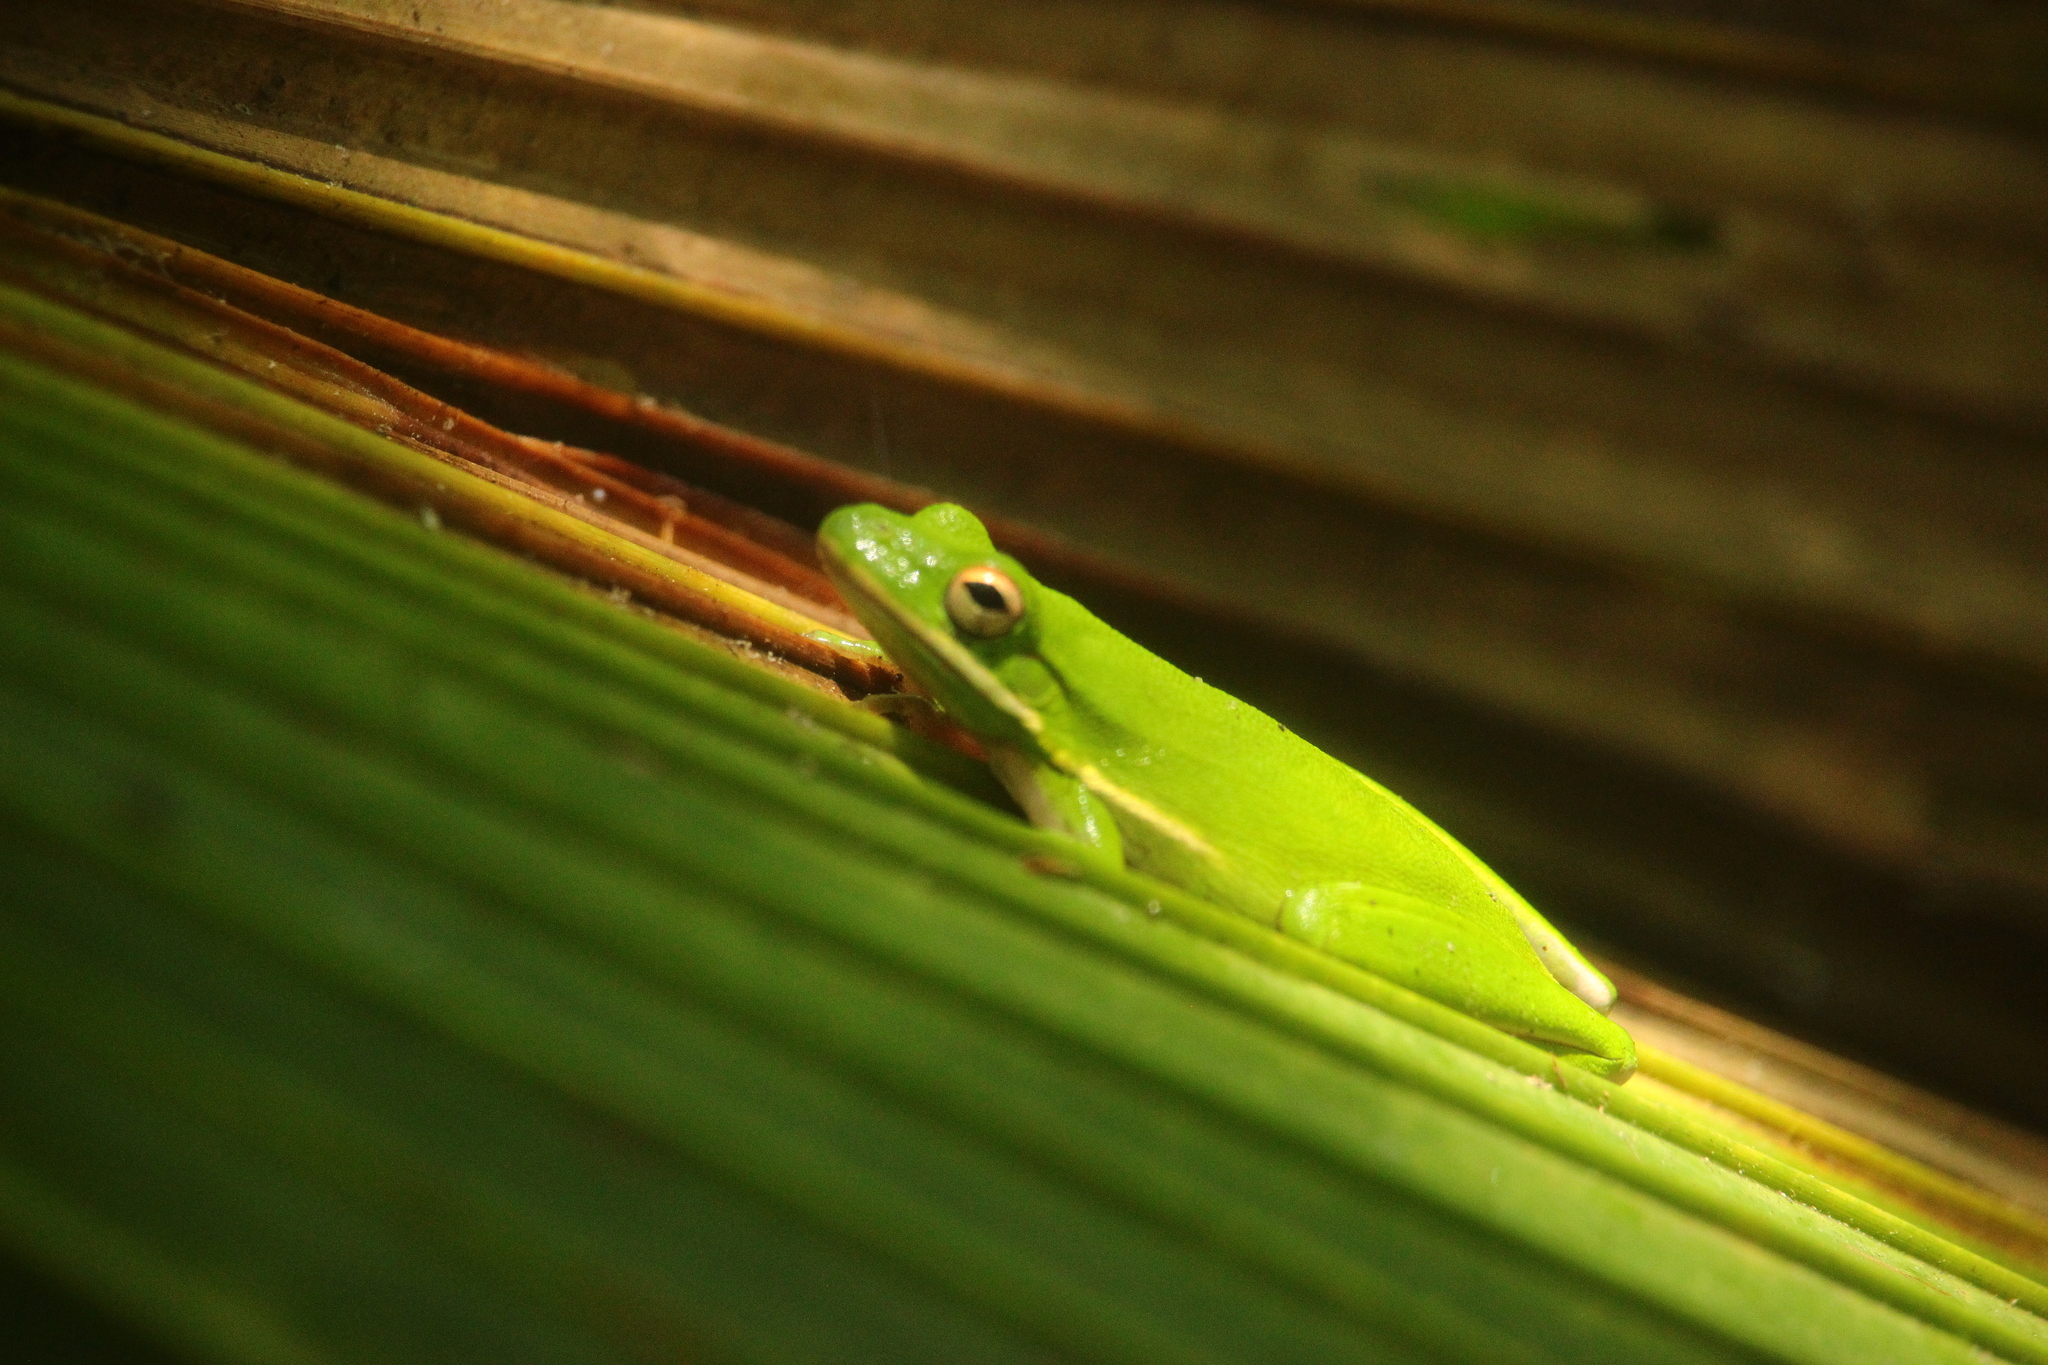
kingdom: Animalia
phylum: Chordata
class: Amphibia
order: Anura
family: Hylidae
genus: Dryophytes
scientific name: Dryophytes cinereus
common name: Green treefrog
